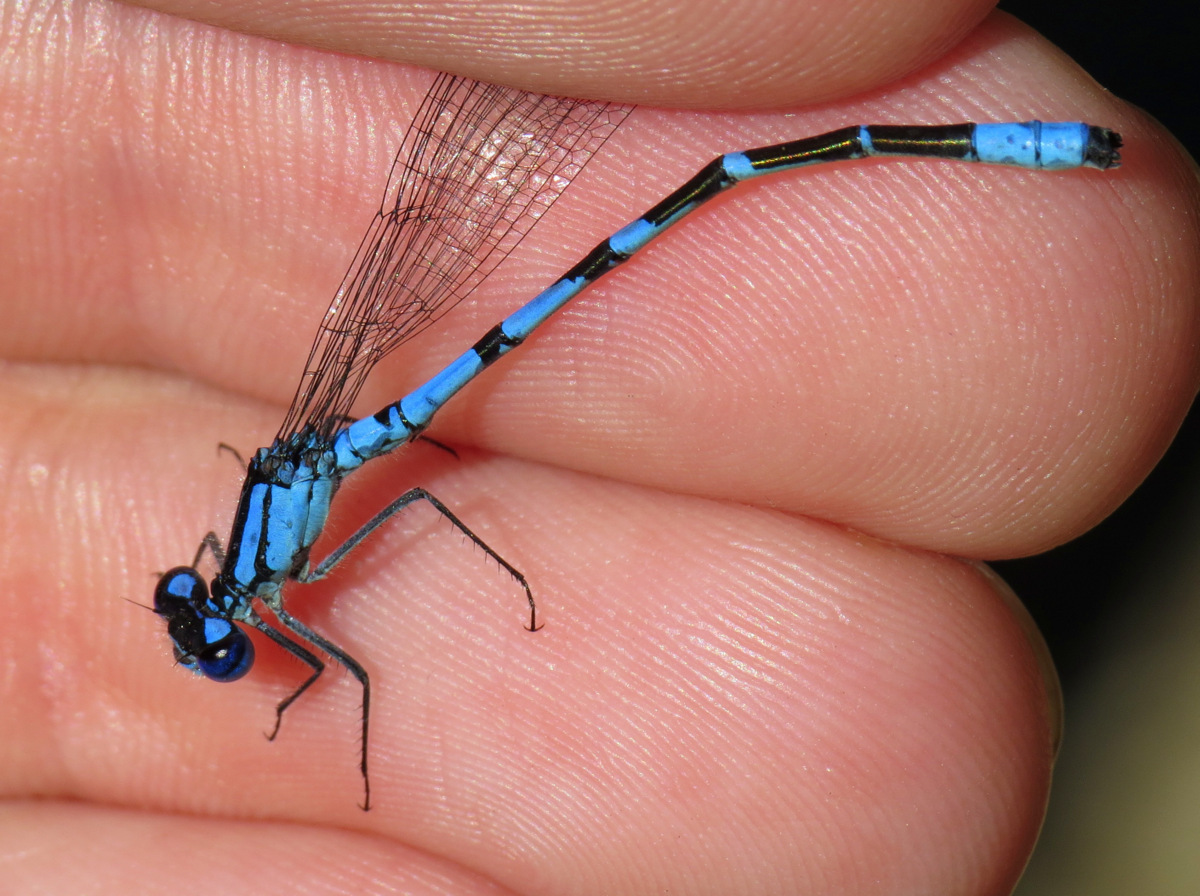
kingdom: Animalia
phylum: Arthropoda
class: Insecta
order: Odonata
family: Coenagrionidae
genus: Enallagma
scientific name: Enallagma boreale
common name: Boreal bluet
